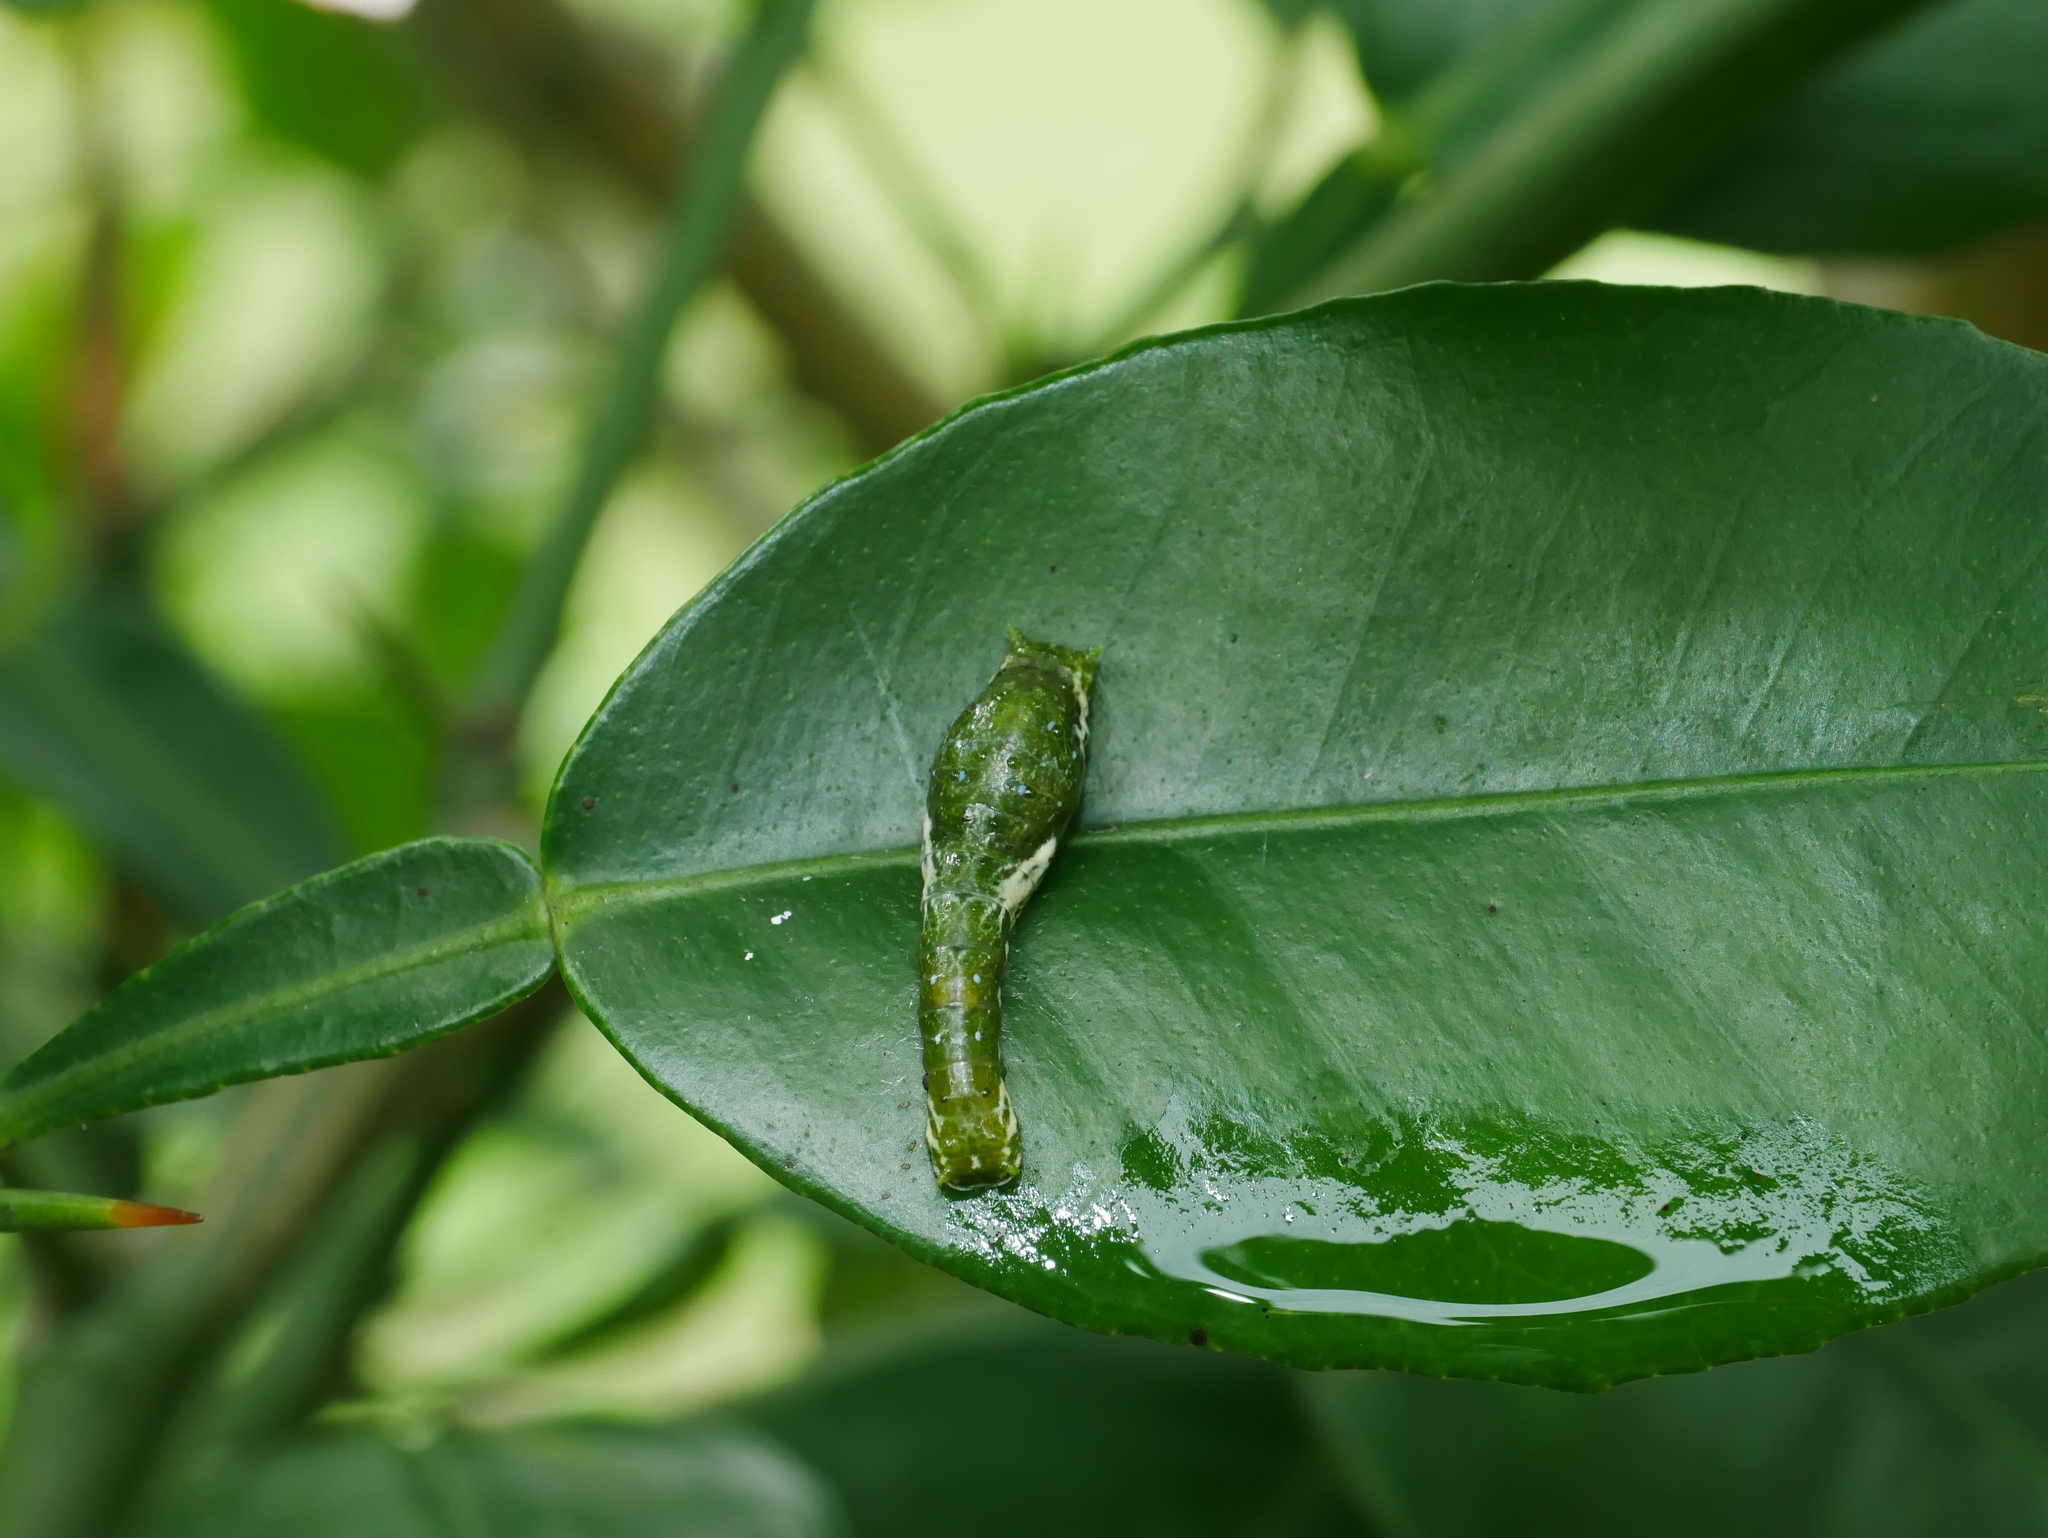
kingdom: Animalia
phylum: Arthropoda
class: Insecta
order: Lepidoptera
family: Papilionidae
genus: Papilio
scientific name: Papilio memnon
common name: Great mormon
